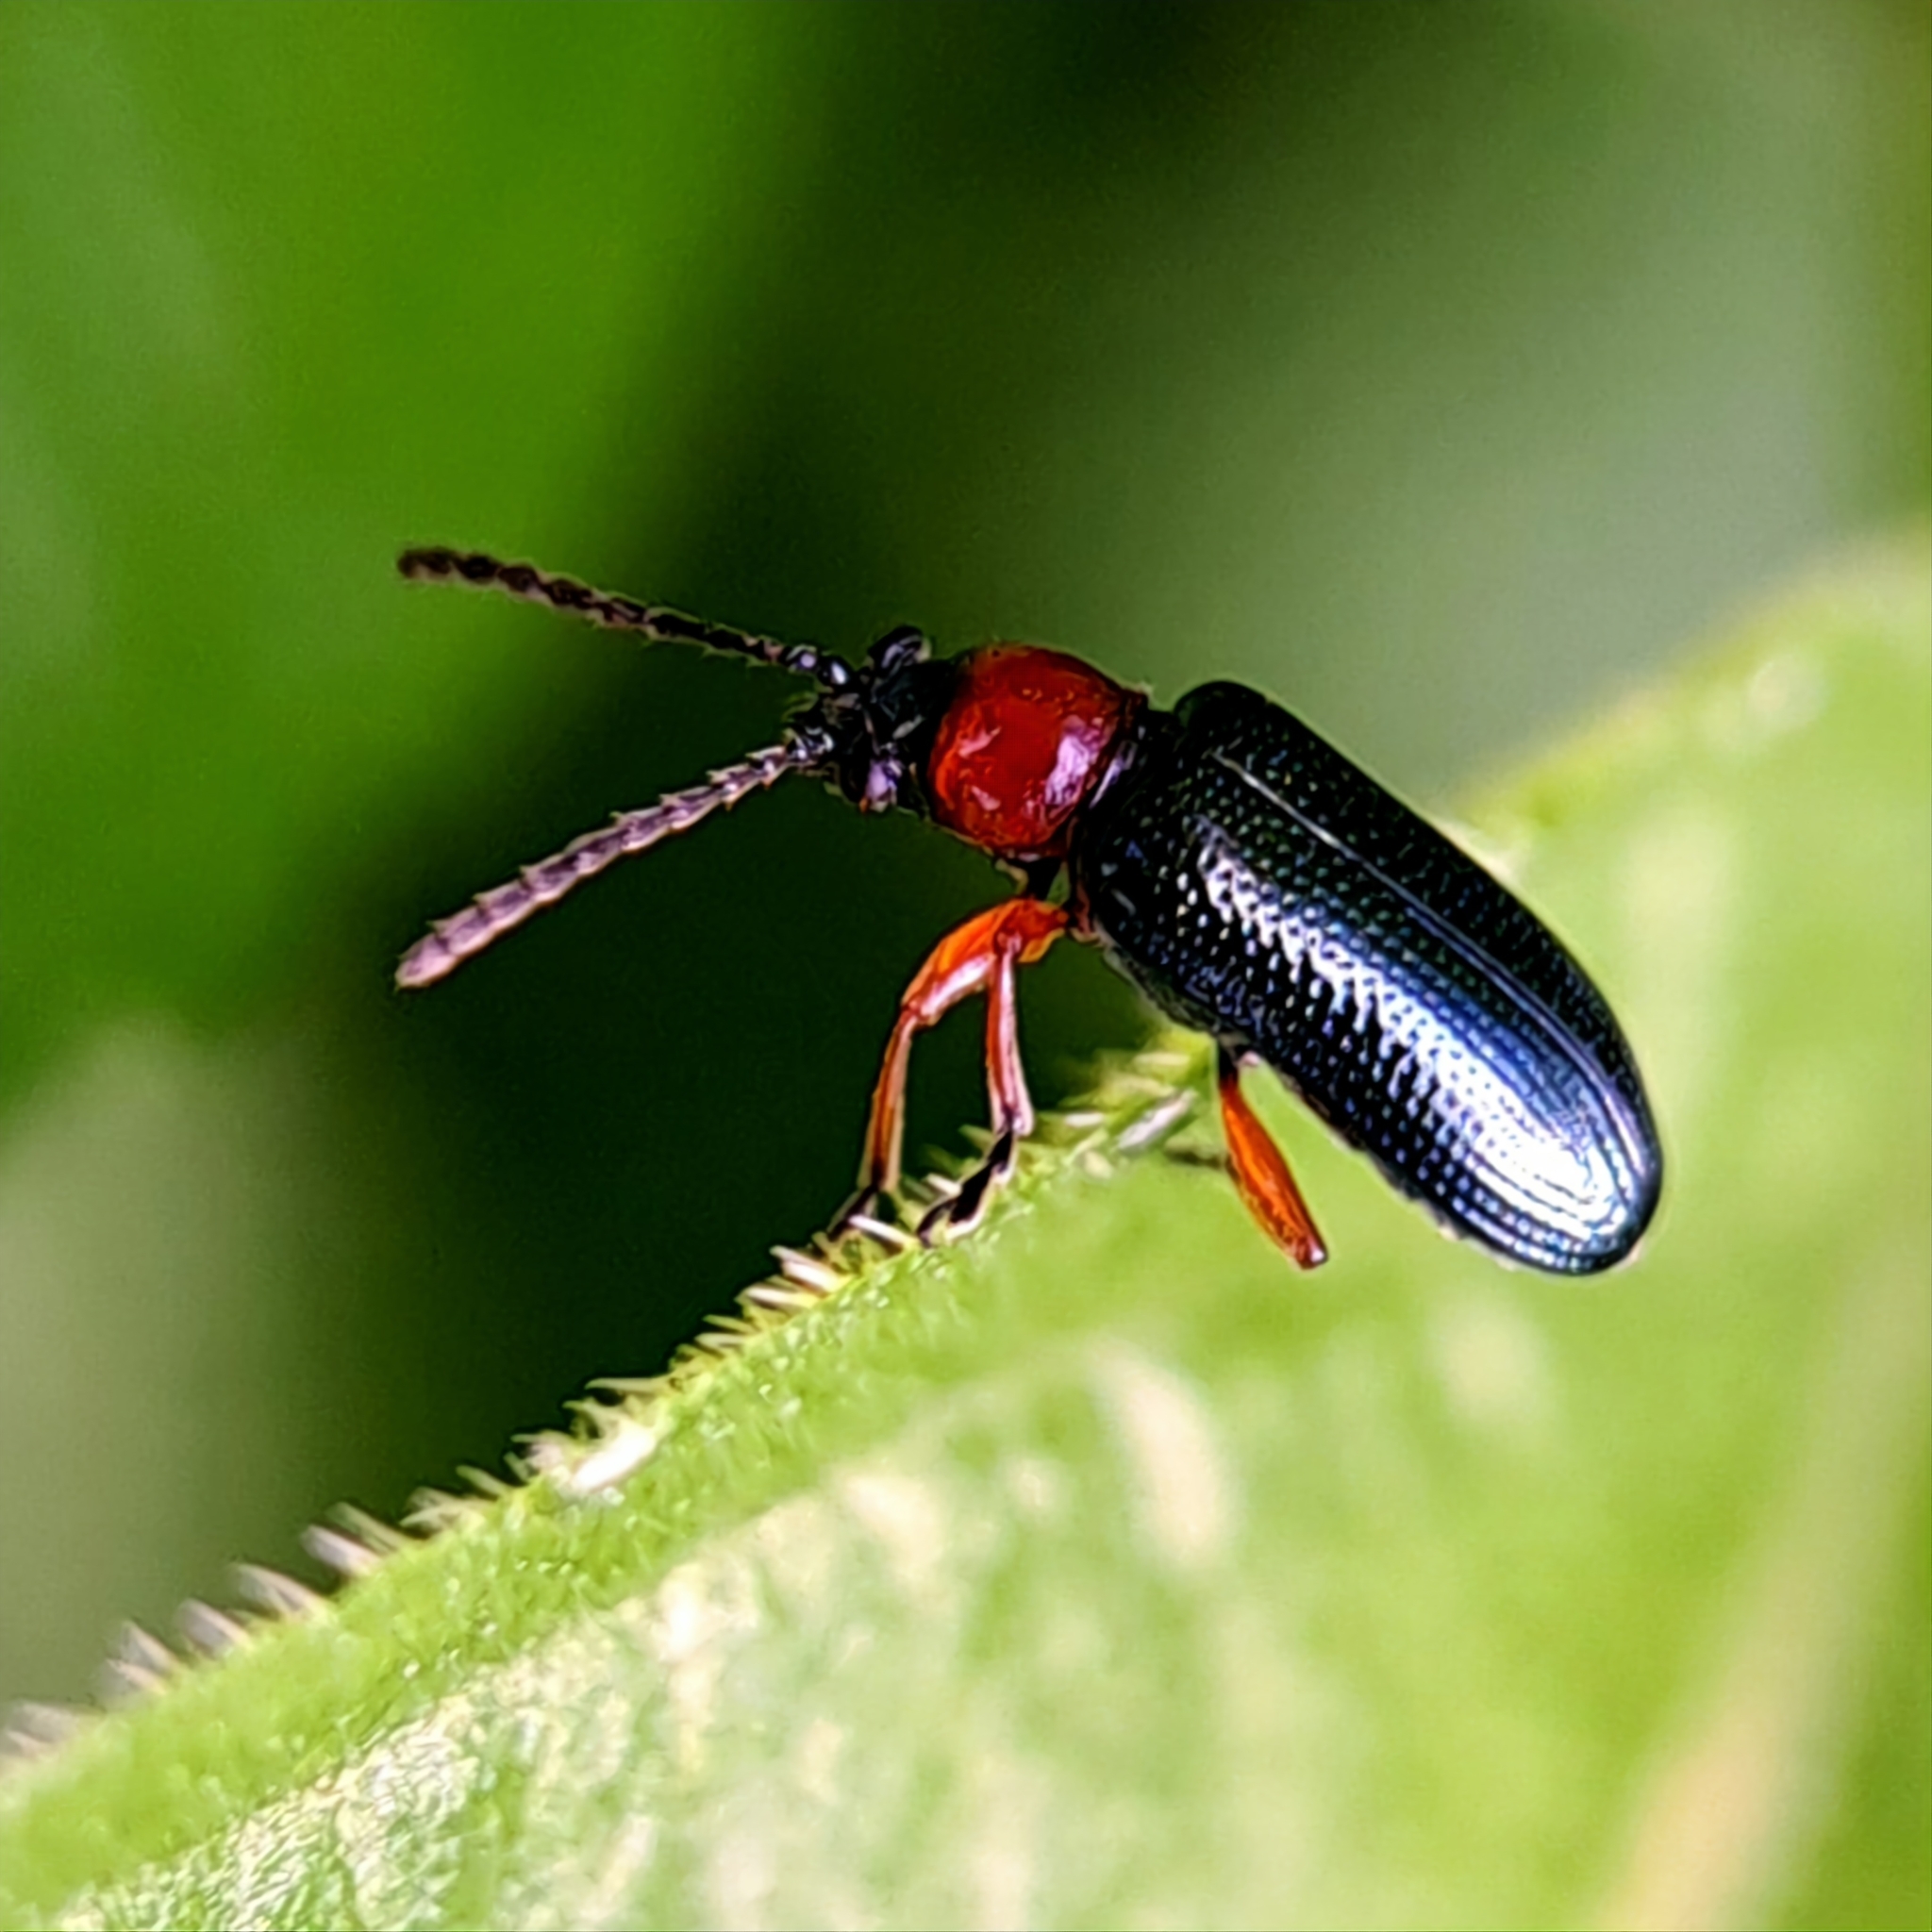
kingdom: Animalia
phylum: Arthropoda
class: Insecta
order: Coleoptera
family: Chrysomelidae
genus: Oulema
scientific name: Oulema
